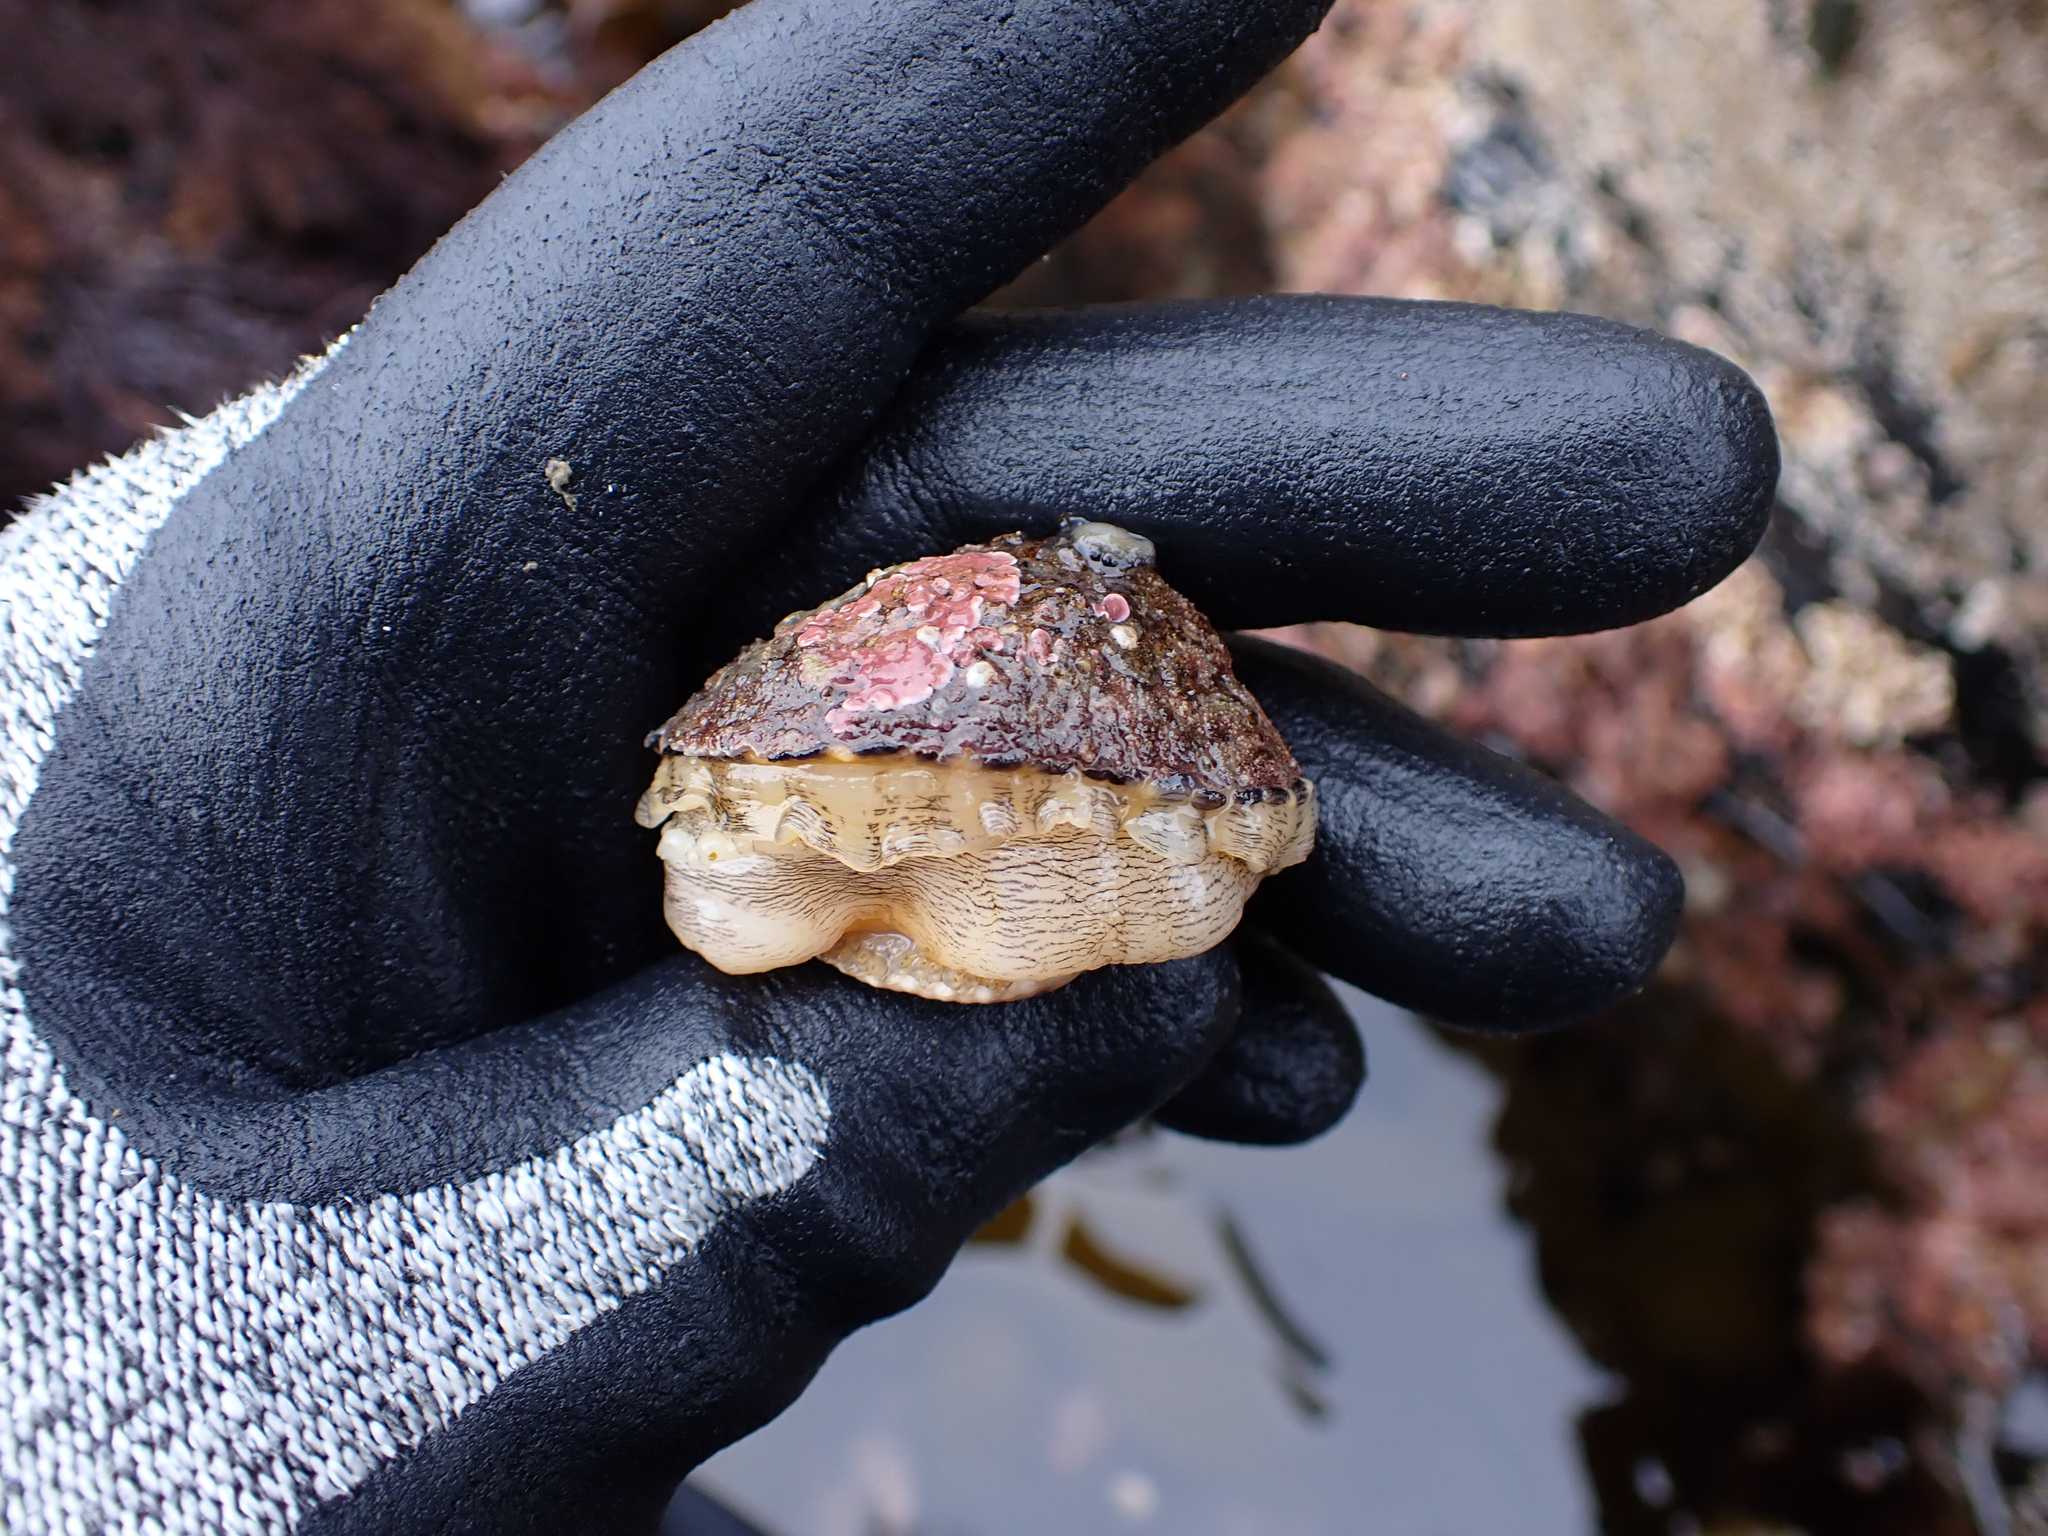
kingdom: Animalia
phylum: Mollusca
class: Gastropoda
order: Lepetellida
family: Fissurellidae
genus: Diodora
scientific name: Diodora aspera
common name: Rough keyhole limpet
